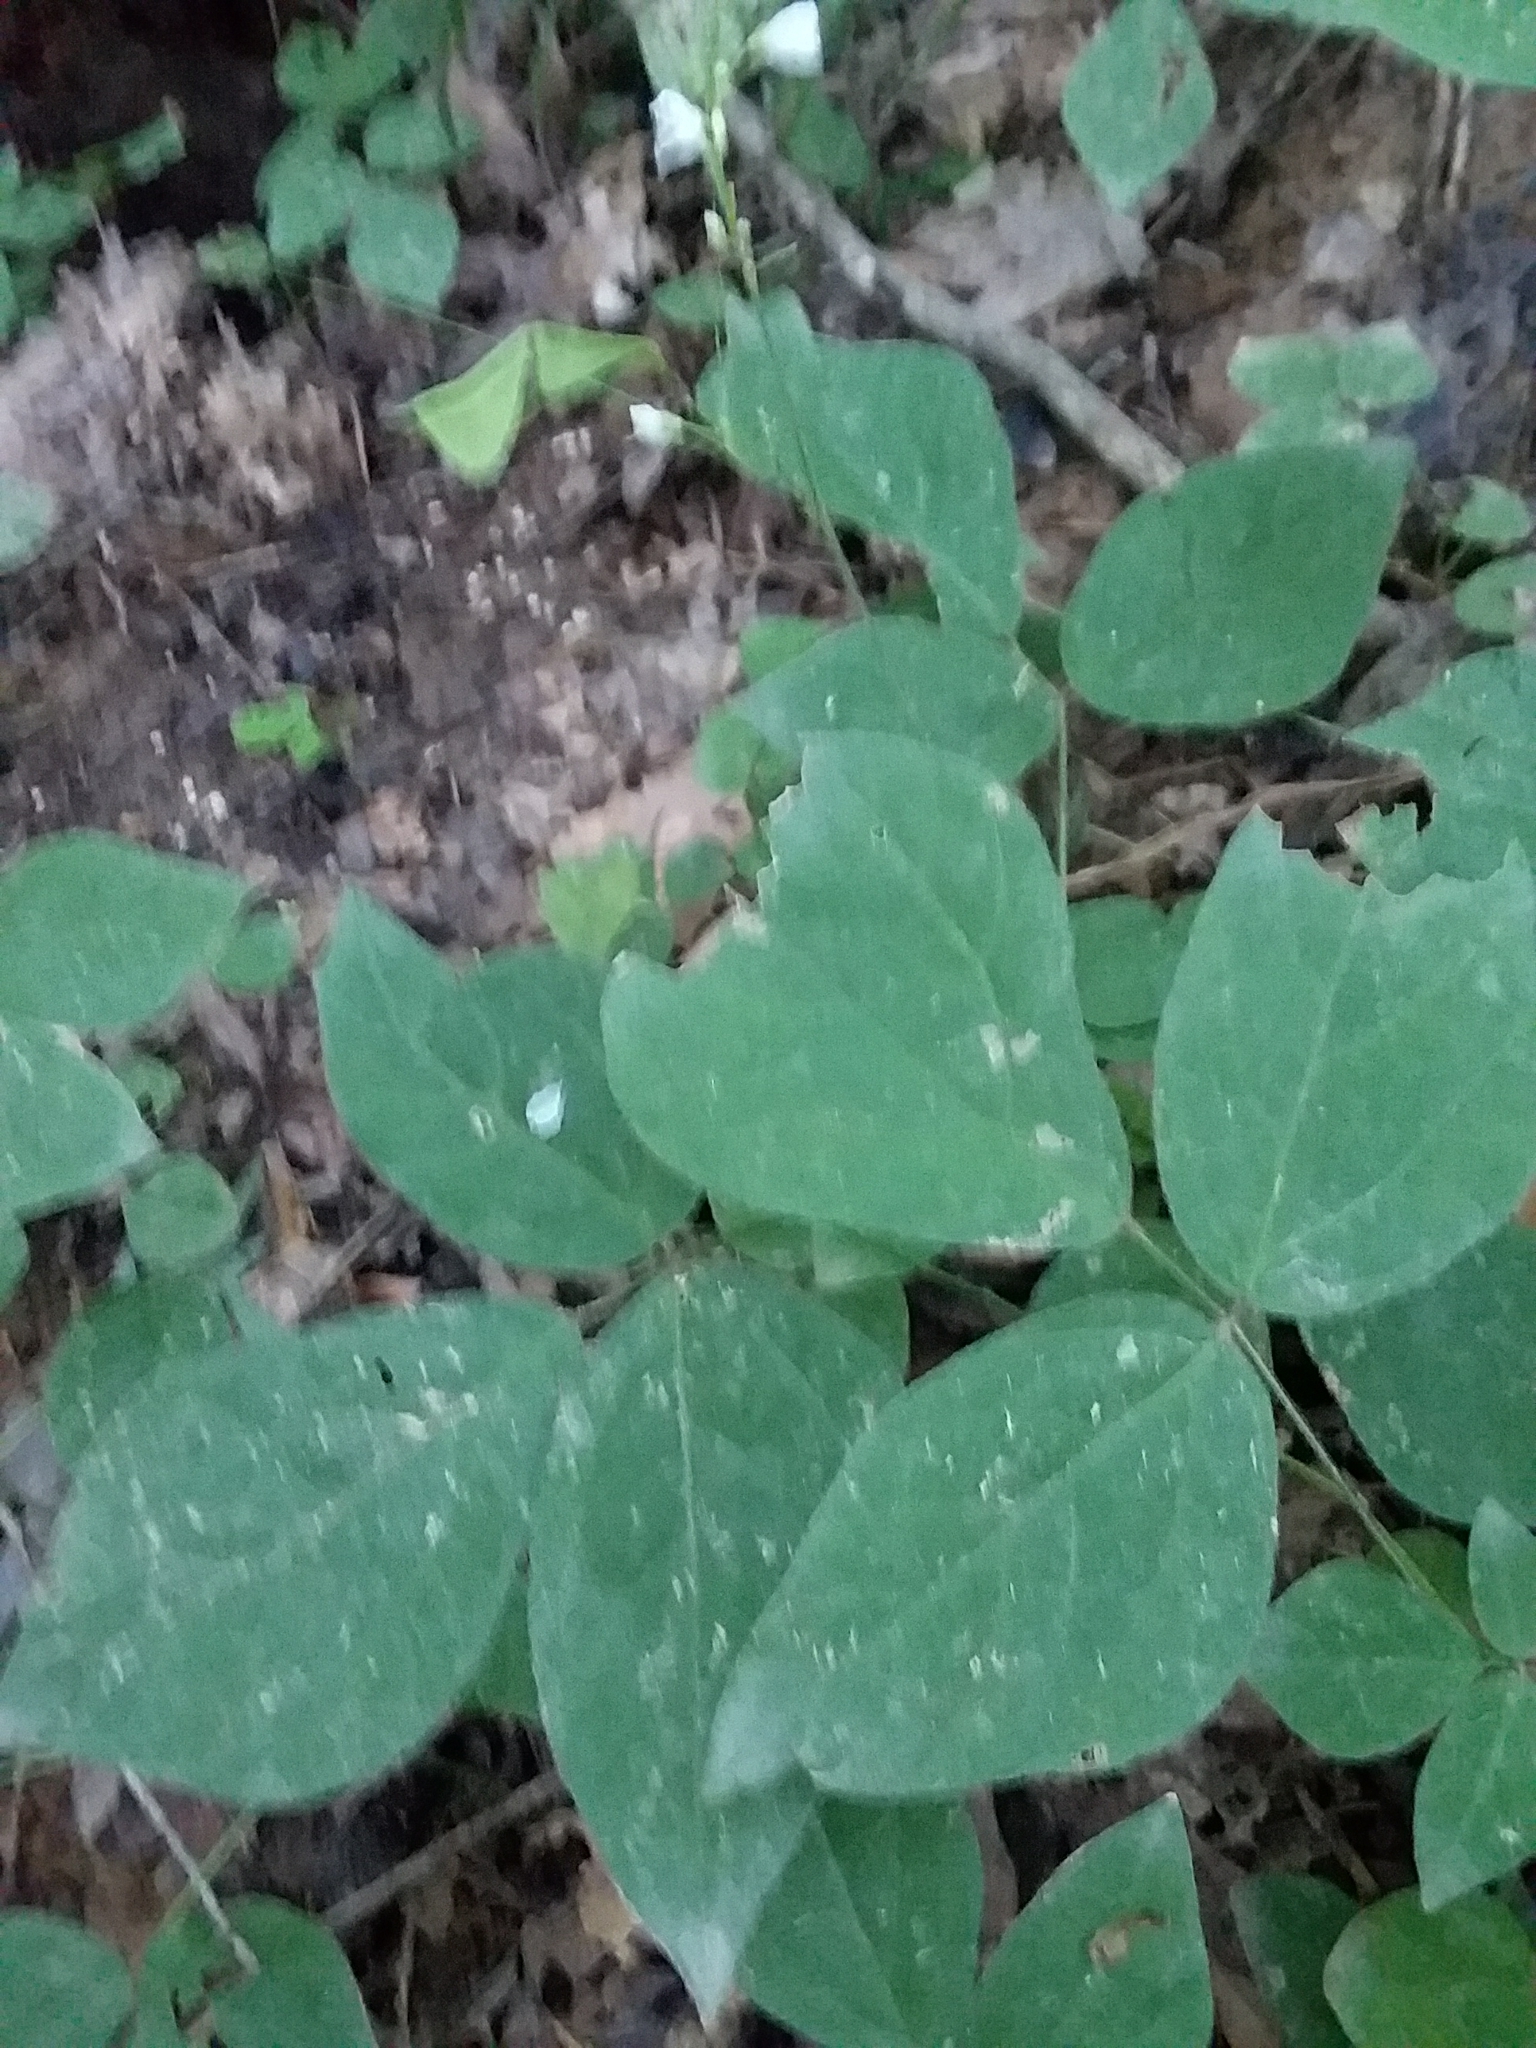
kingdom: Plantae
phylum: Tracheophyta
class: Magnoliopsida
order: Fabales
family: Fabaceae
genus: Hylodesmum
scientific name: Hylodesmum pauciflorum
